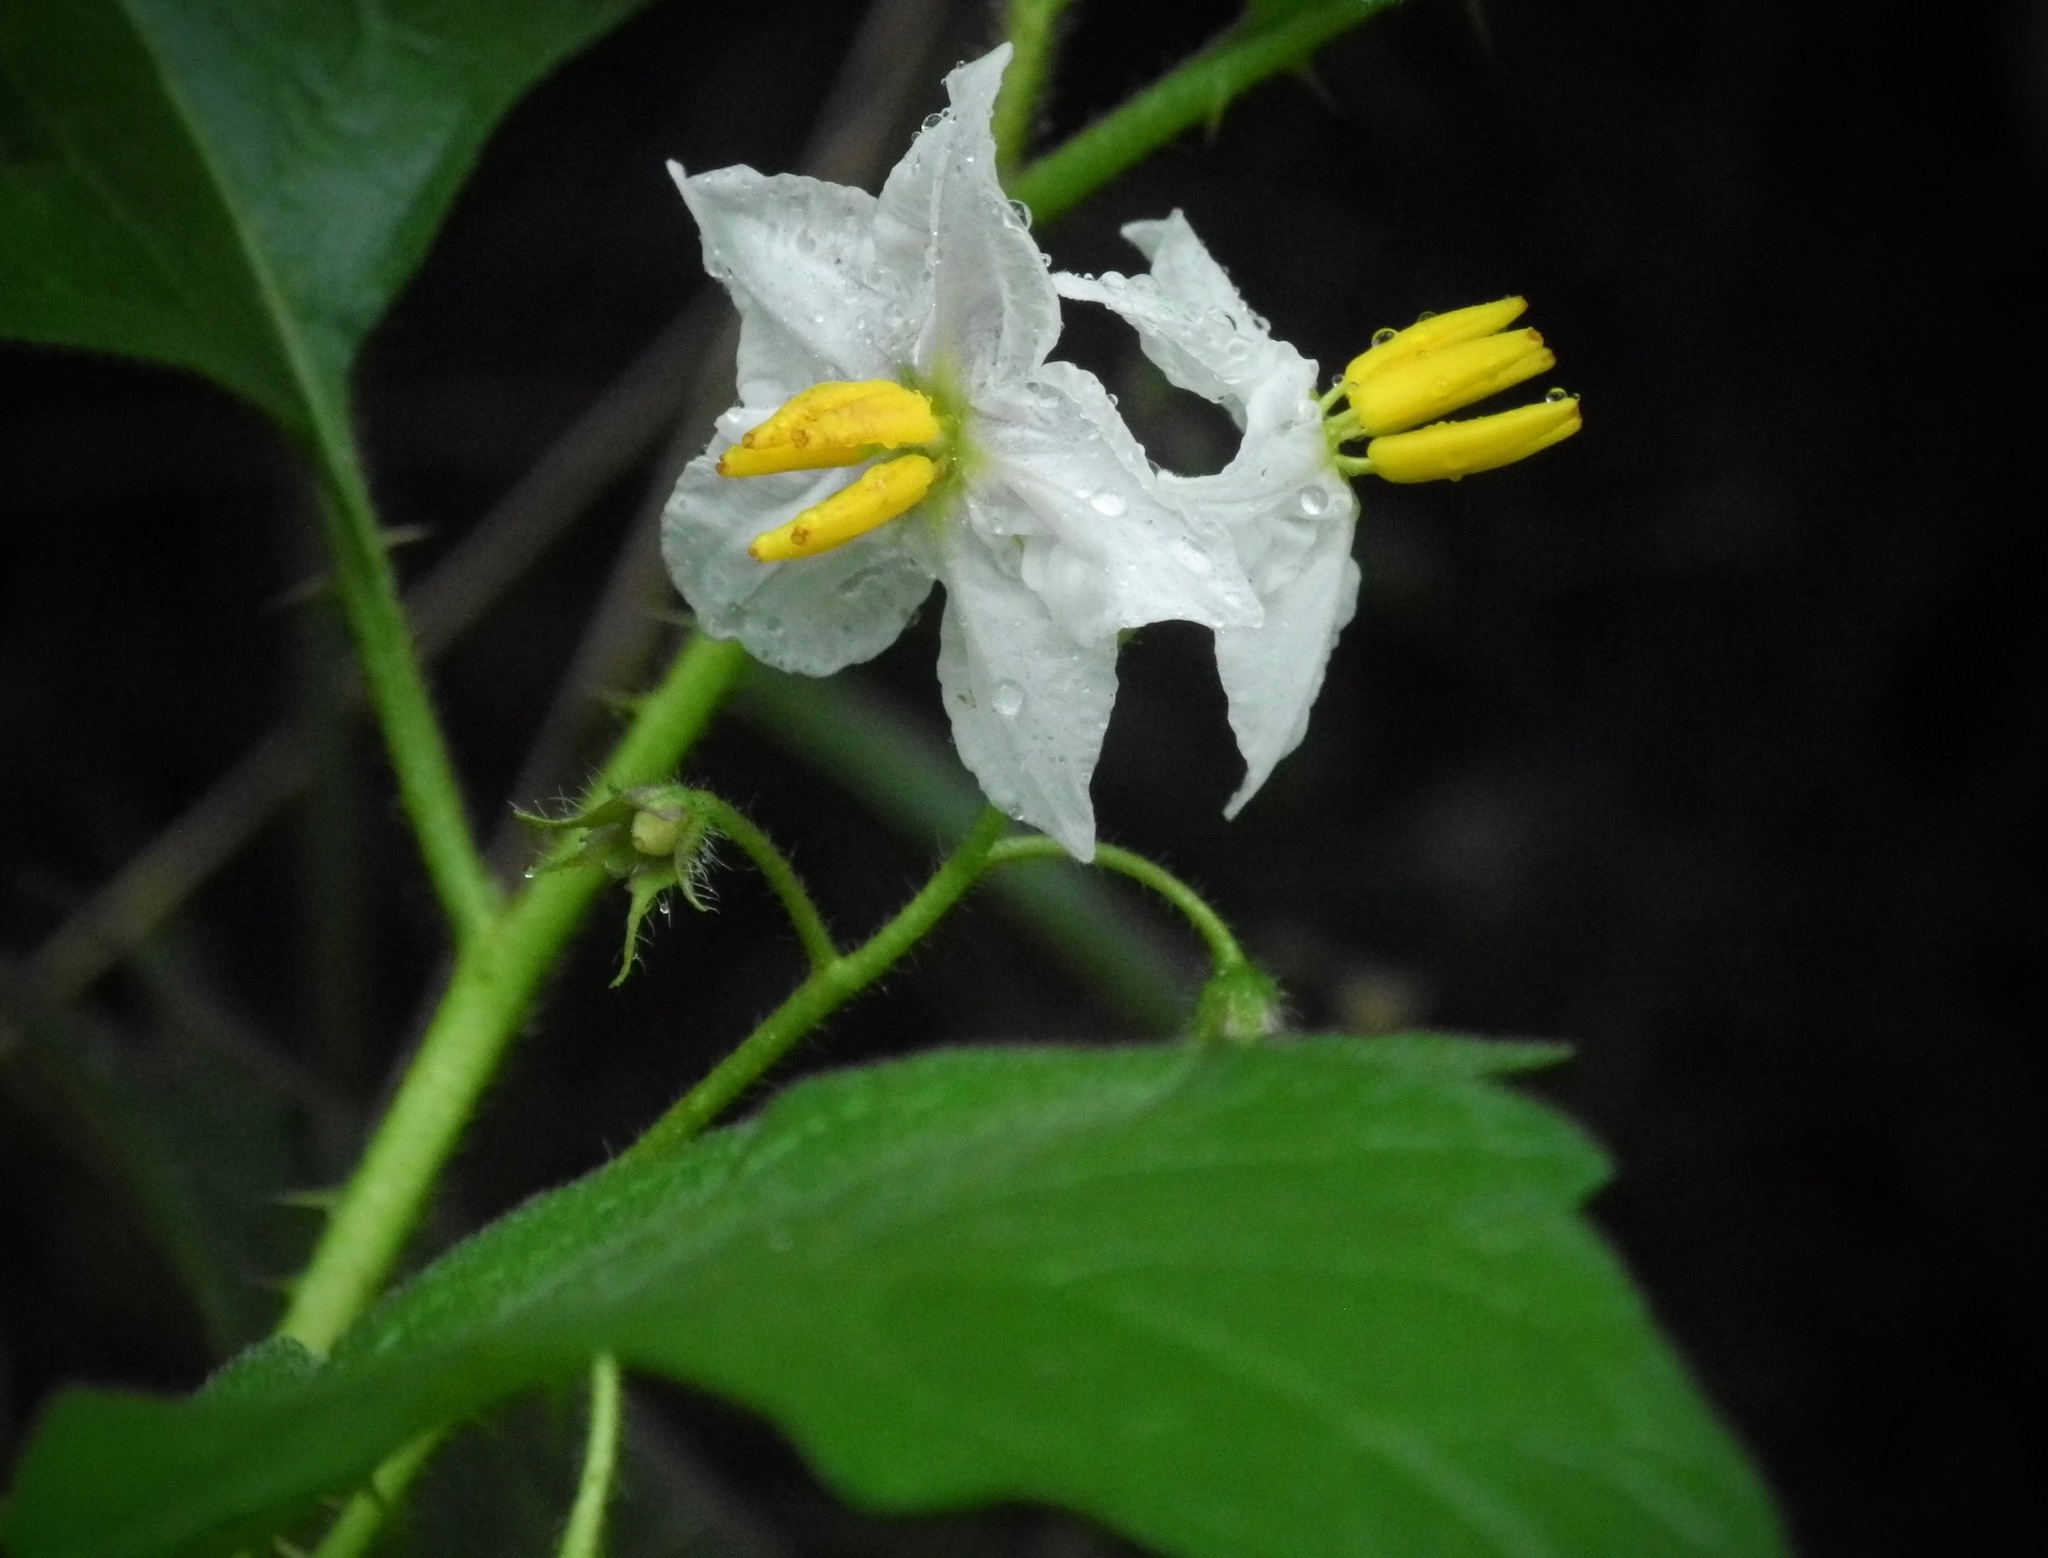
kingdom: Plantae
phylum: Tracheophyta
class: Magnoliopsida
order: Solanales
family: Solanaceae
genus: Solanum
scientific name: Solanum carolinense
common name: Horse-nettle
